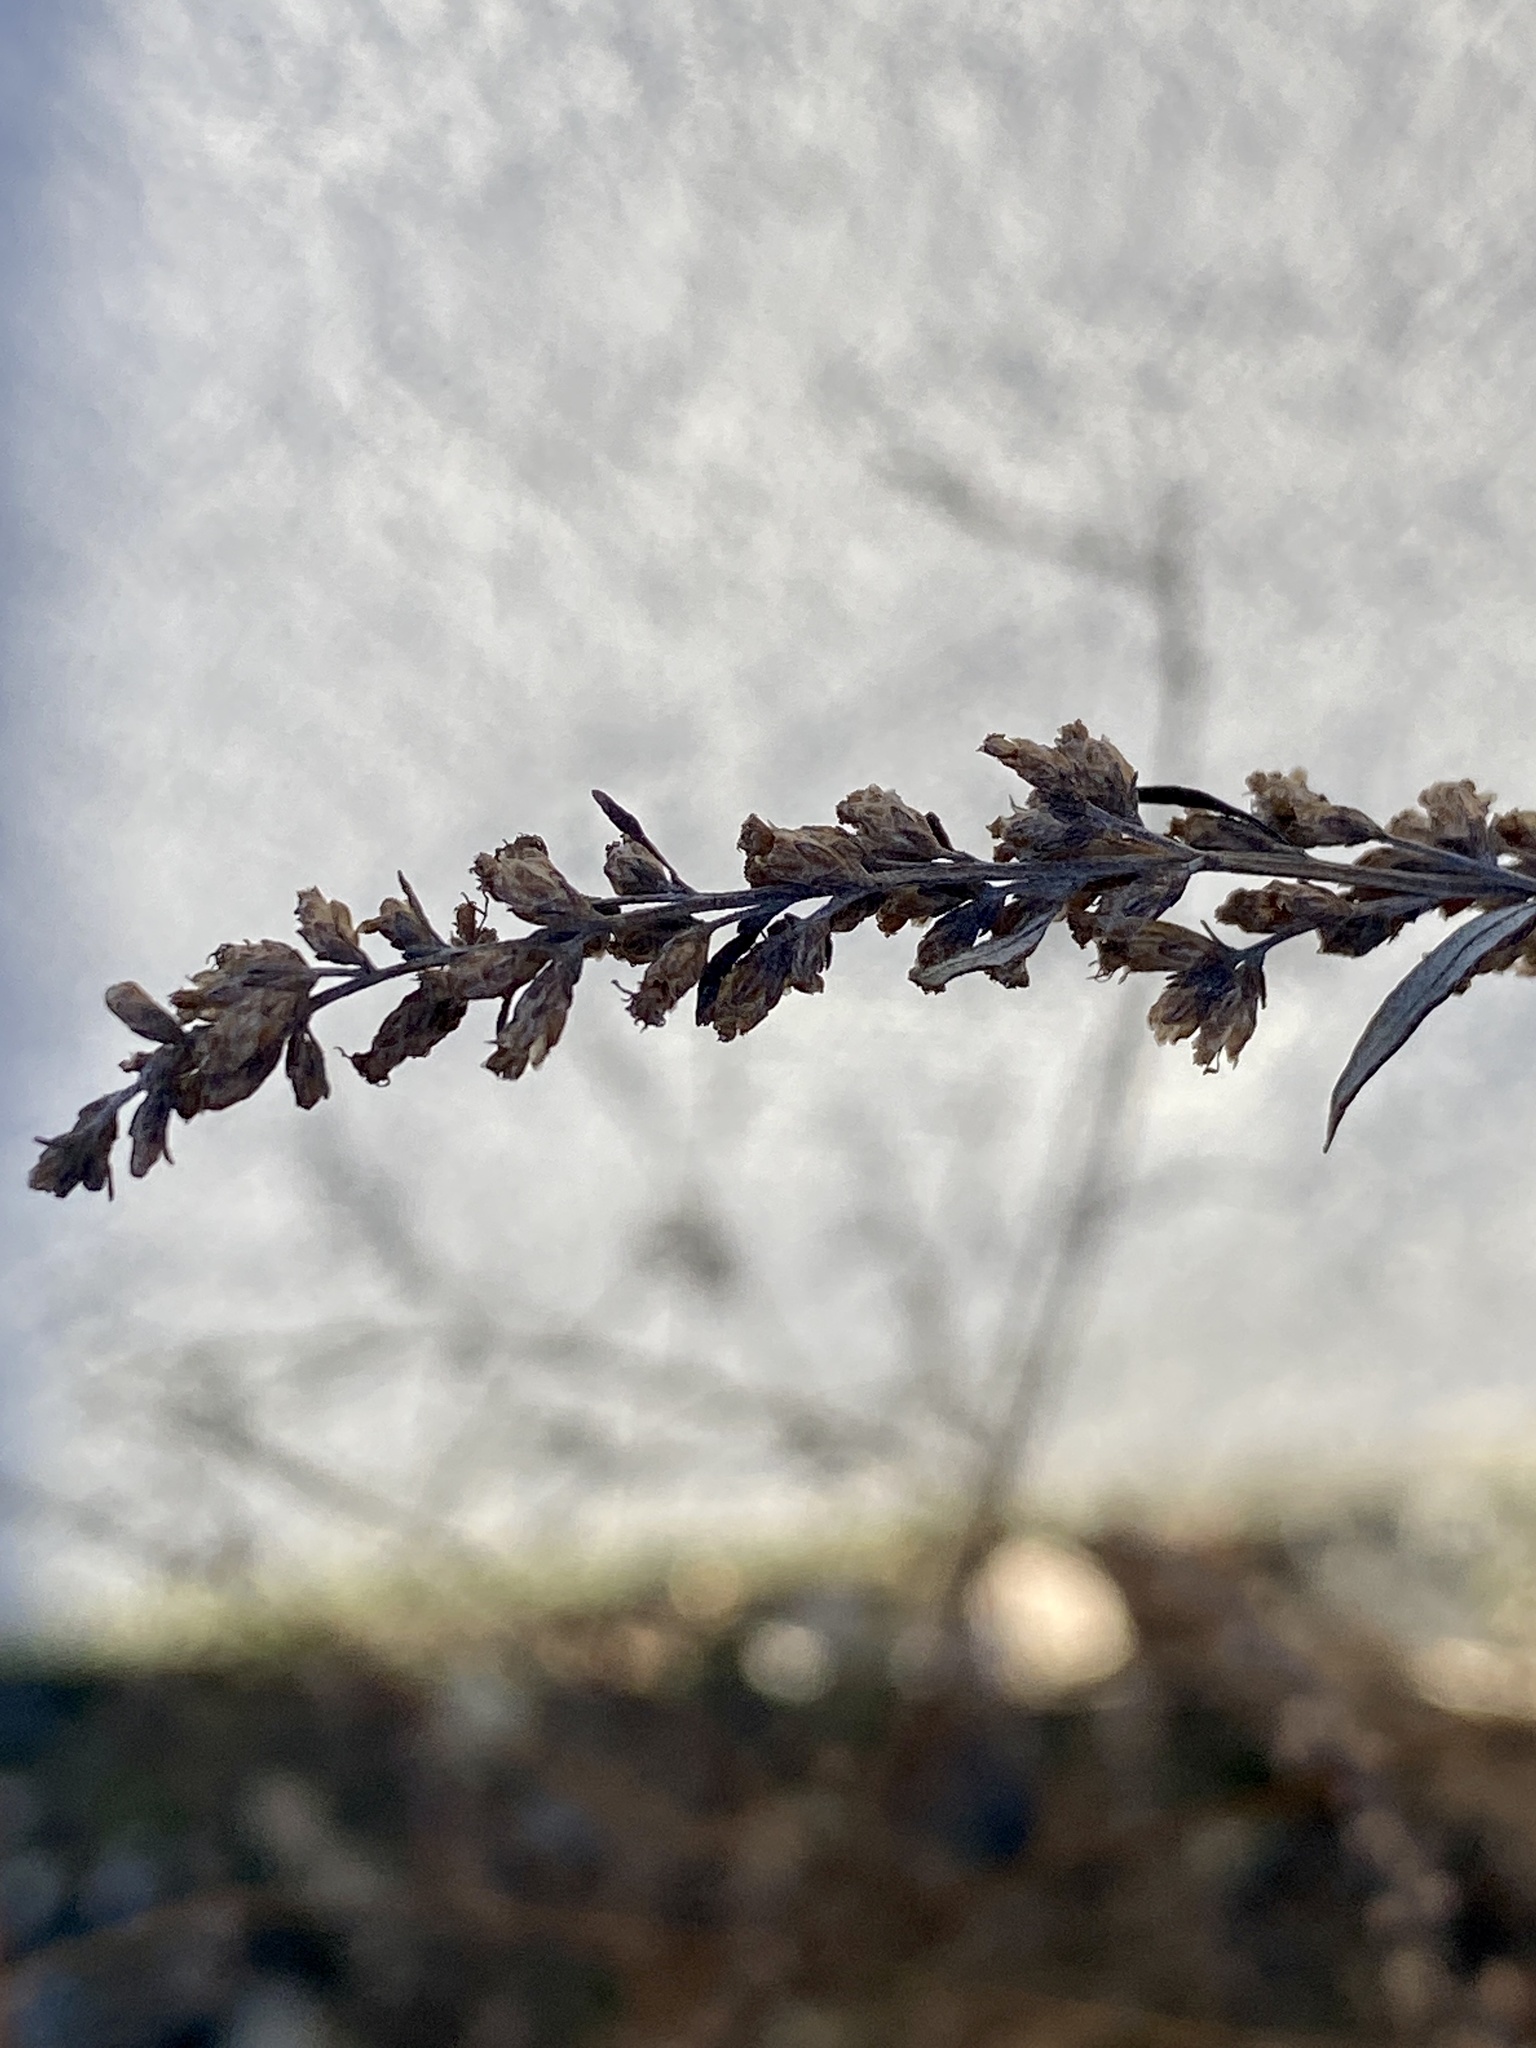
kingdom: Plantae
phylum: Tracheophyta
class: Magnoliopsida
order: Asterales
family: Asteraceae
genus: Artemisia
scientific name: Artemisia vulgaris
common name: Mugwort
